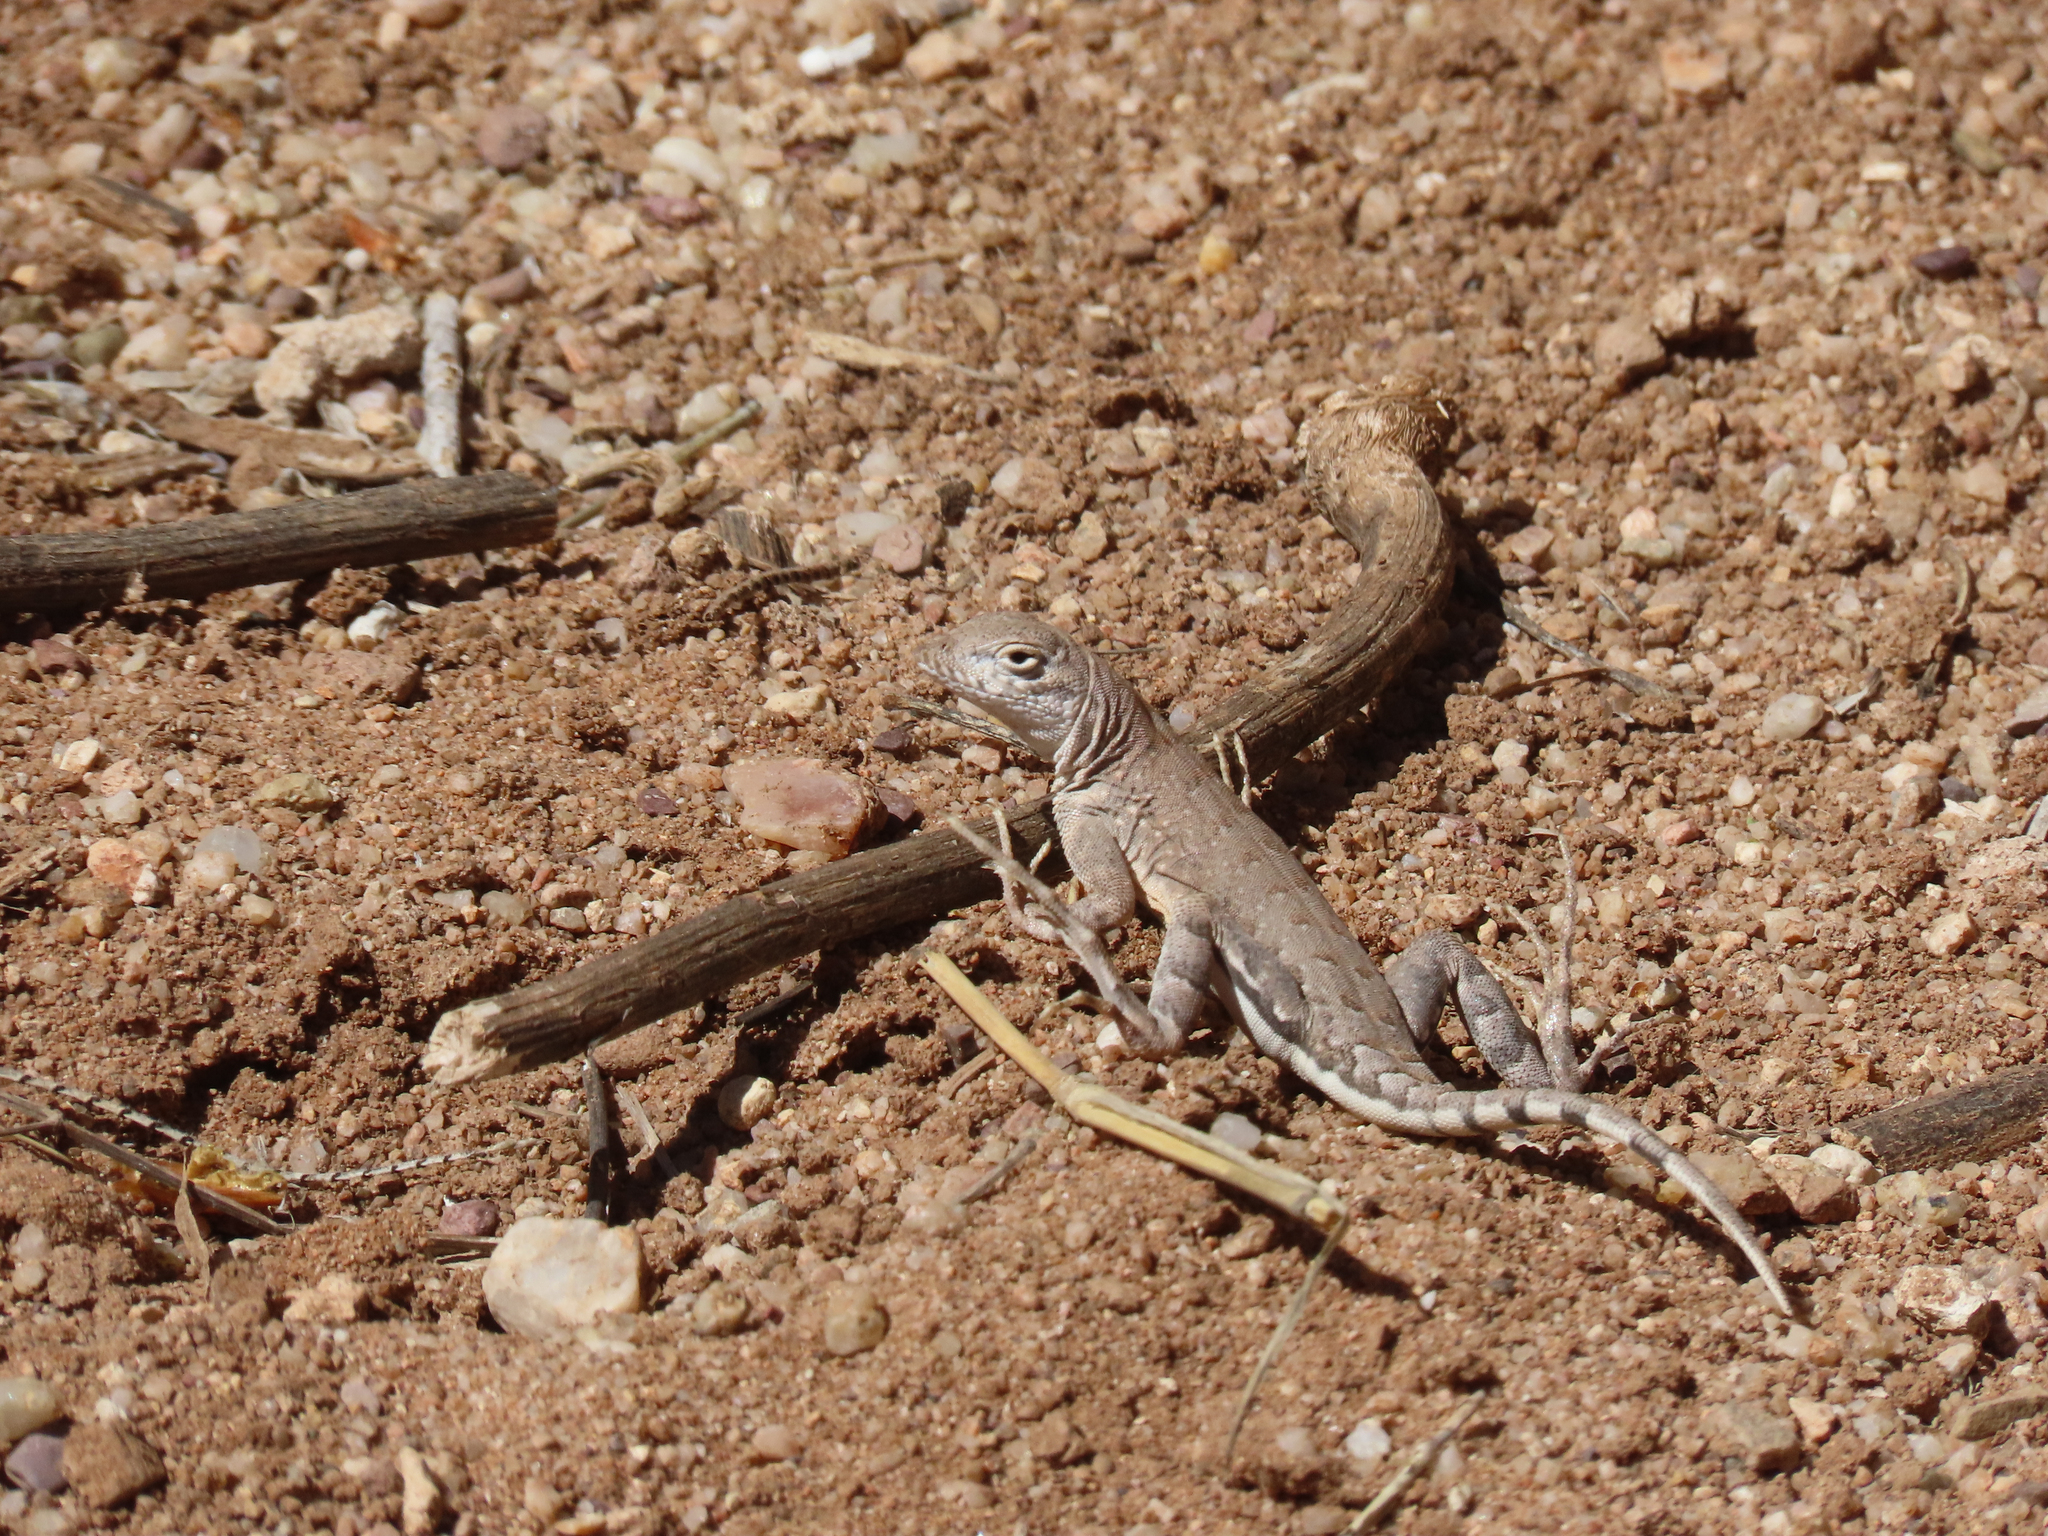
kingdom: Animalia
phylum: Chordata
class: Squamata
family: Phrynosomatidae
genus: Cophosaurus
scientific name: Cophosaurus texanus
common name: Greater earless lizard
